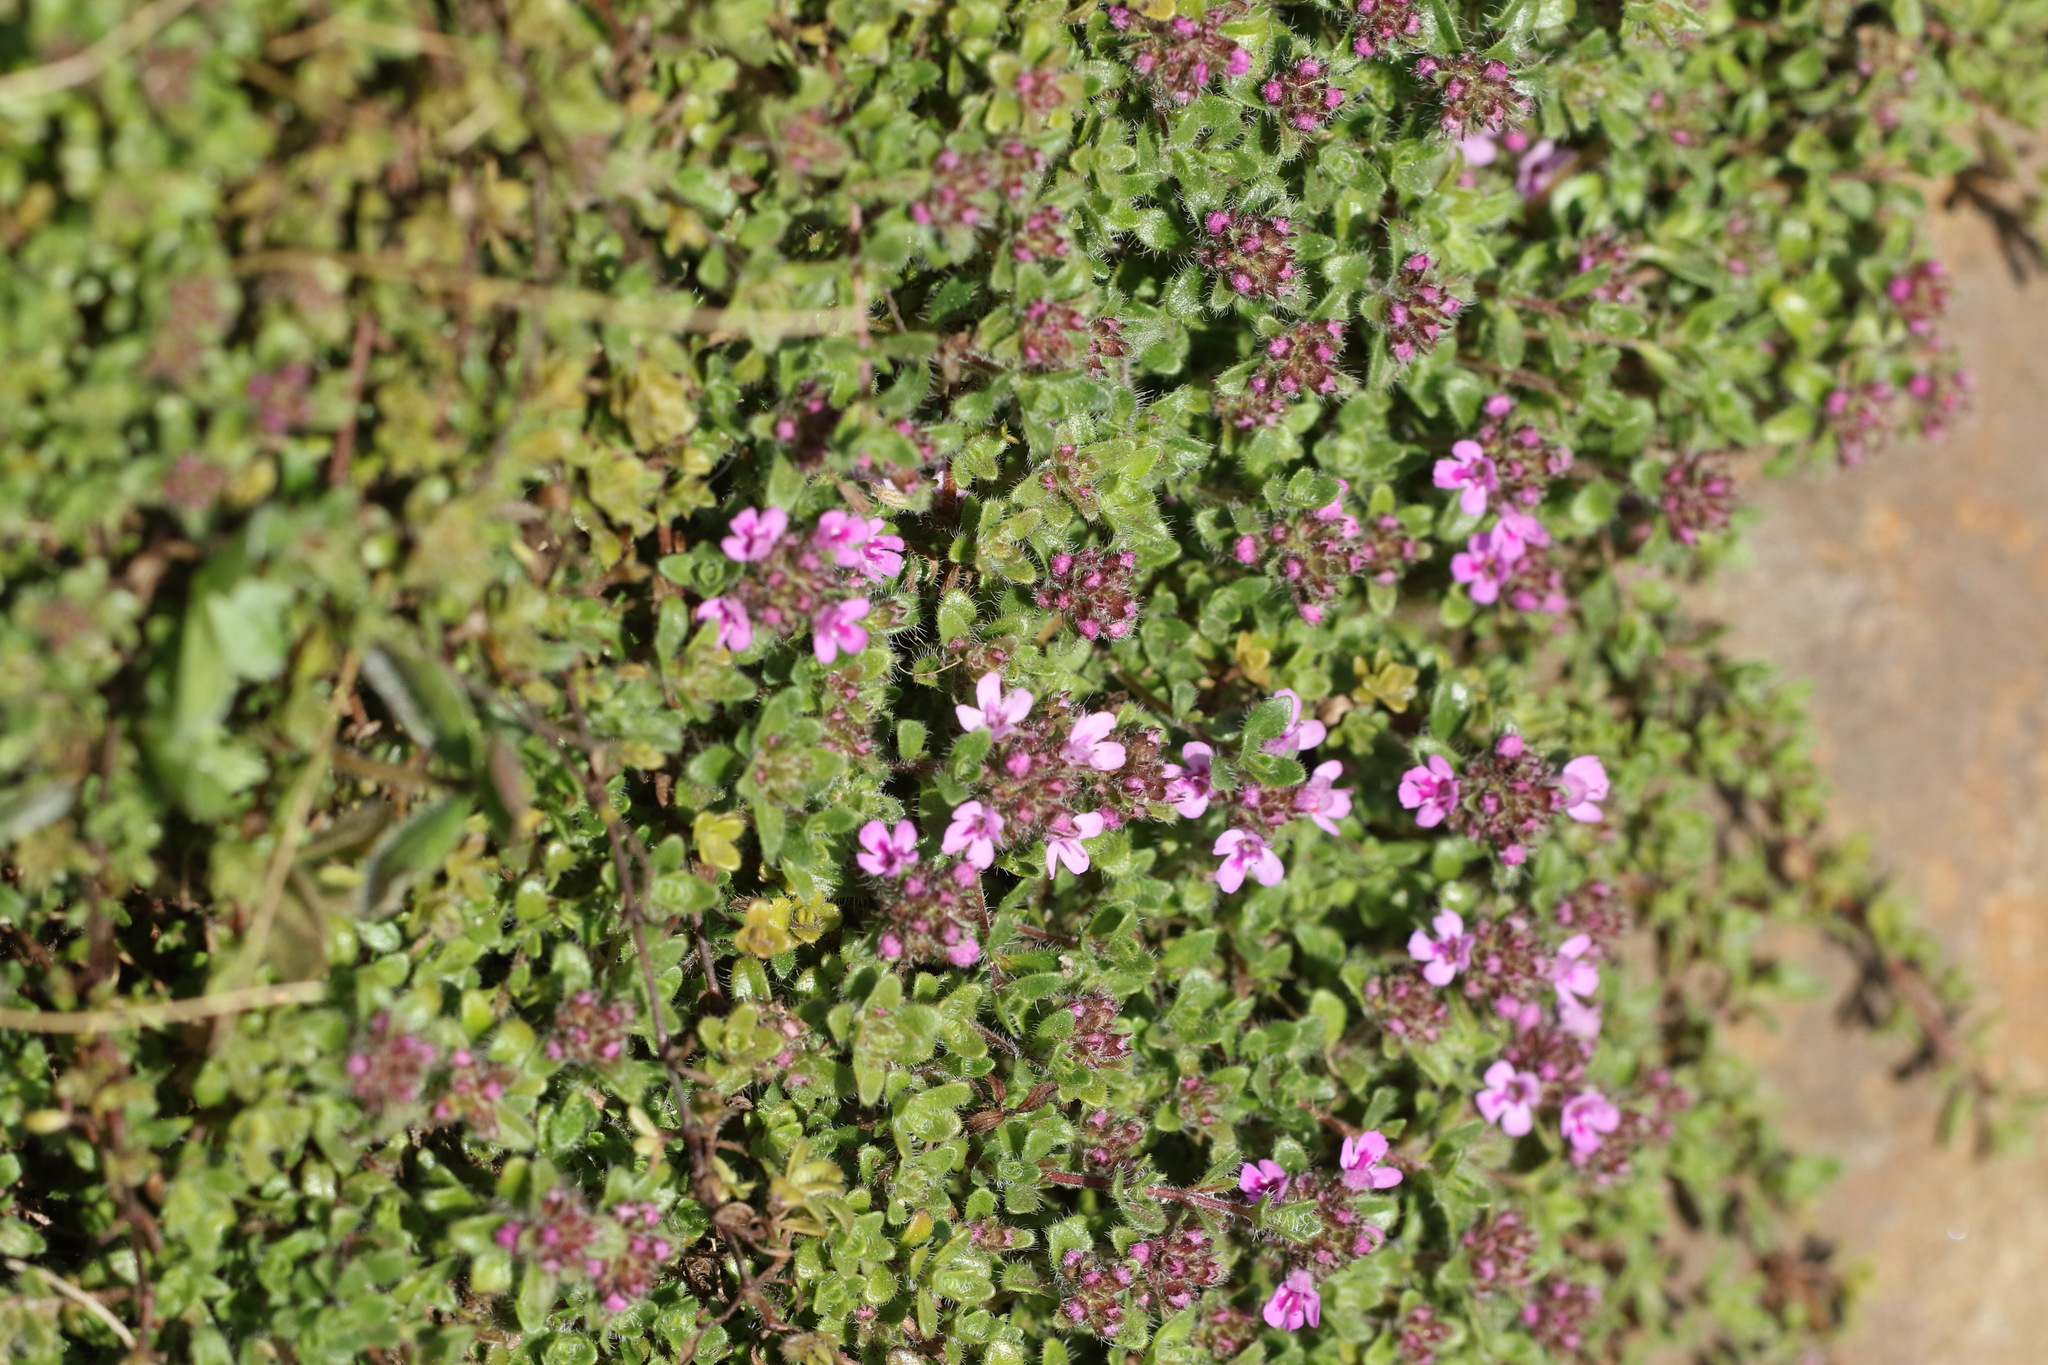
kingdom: Plantae
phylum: Tracheophyta
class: Magnoliopsida
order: Lamiales
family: Lamiaceae
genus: Thymus
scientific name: Thymus praecox
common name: Wild thyme
